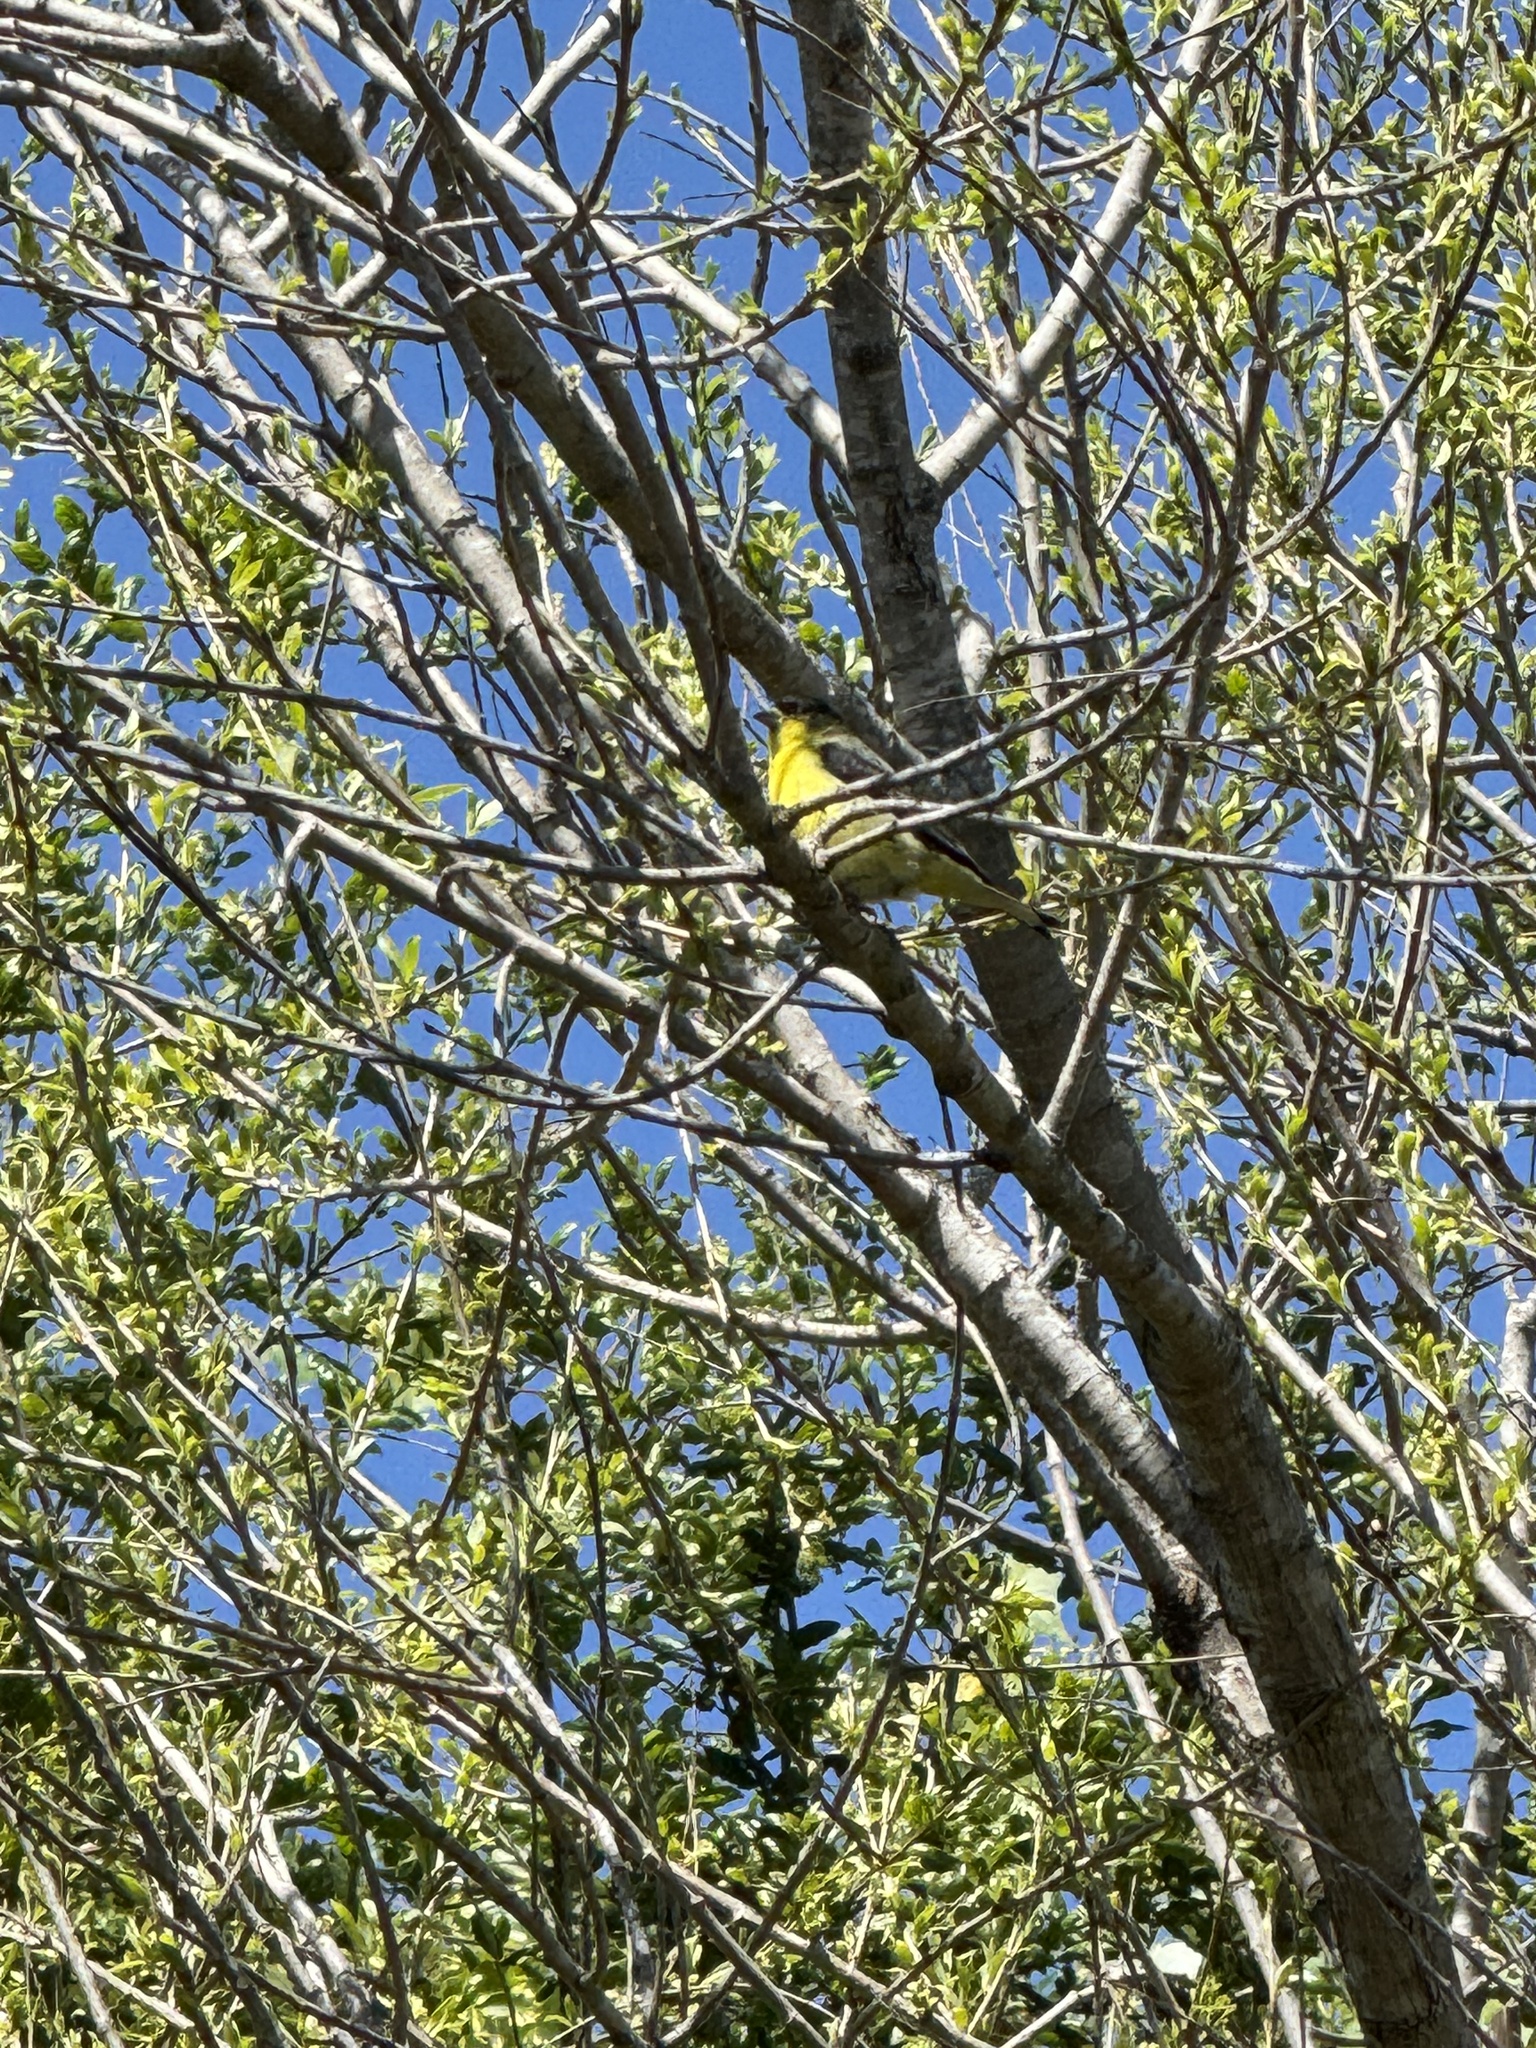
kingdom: Animalia
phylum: Chordata
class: Aves
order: Passeriformes
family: Fringillidae
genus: Spinus
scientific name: Spinus psaltria
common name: Lesser goldfinch
